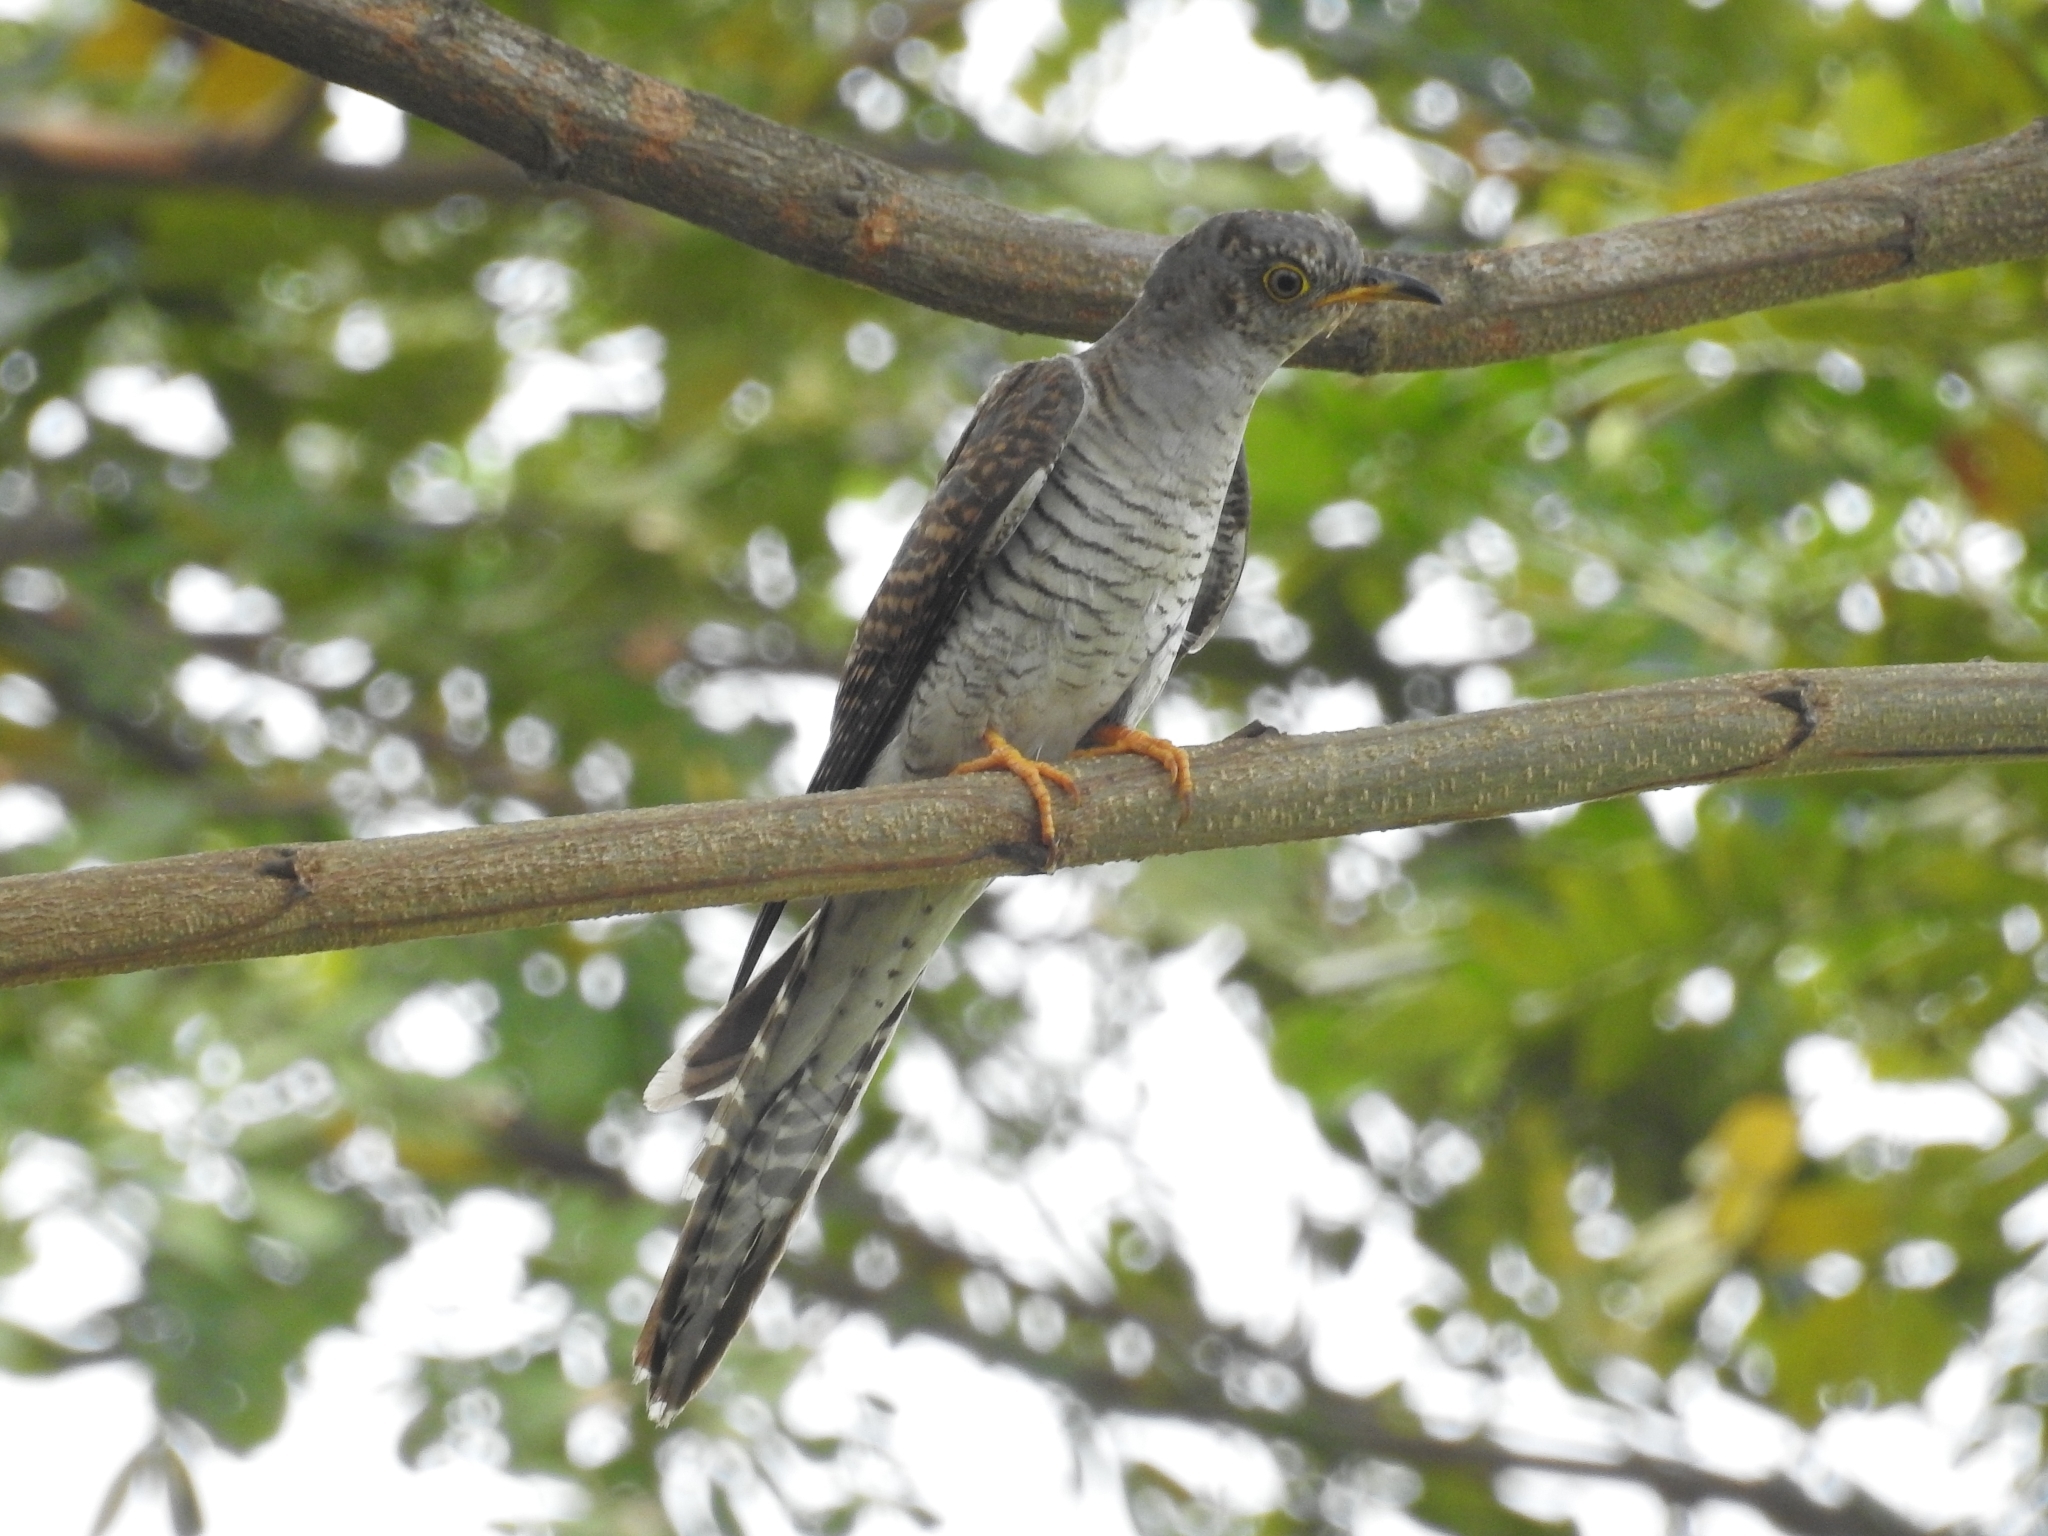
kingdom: Animalia
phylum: Chordata
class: Aves
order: Cuculiformes
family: Cuculidae
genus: Cuculus
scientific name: Cuculus canorus
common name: Common cuckoo
